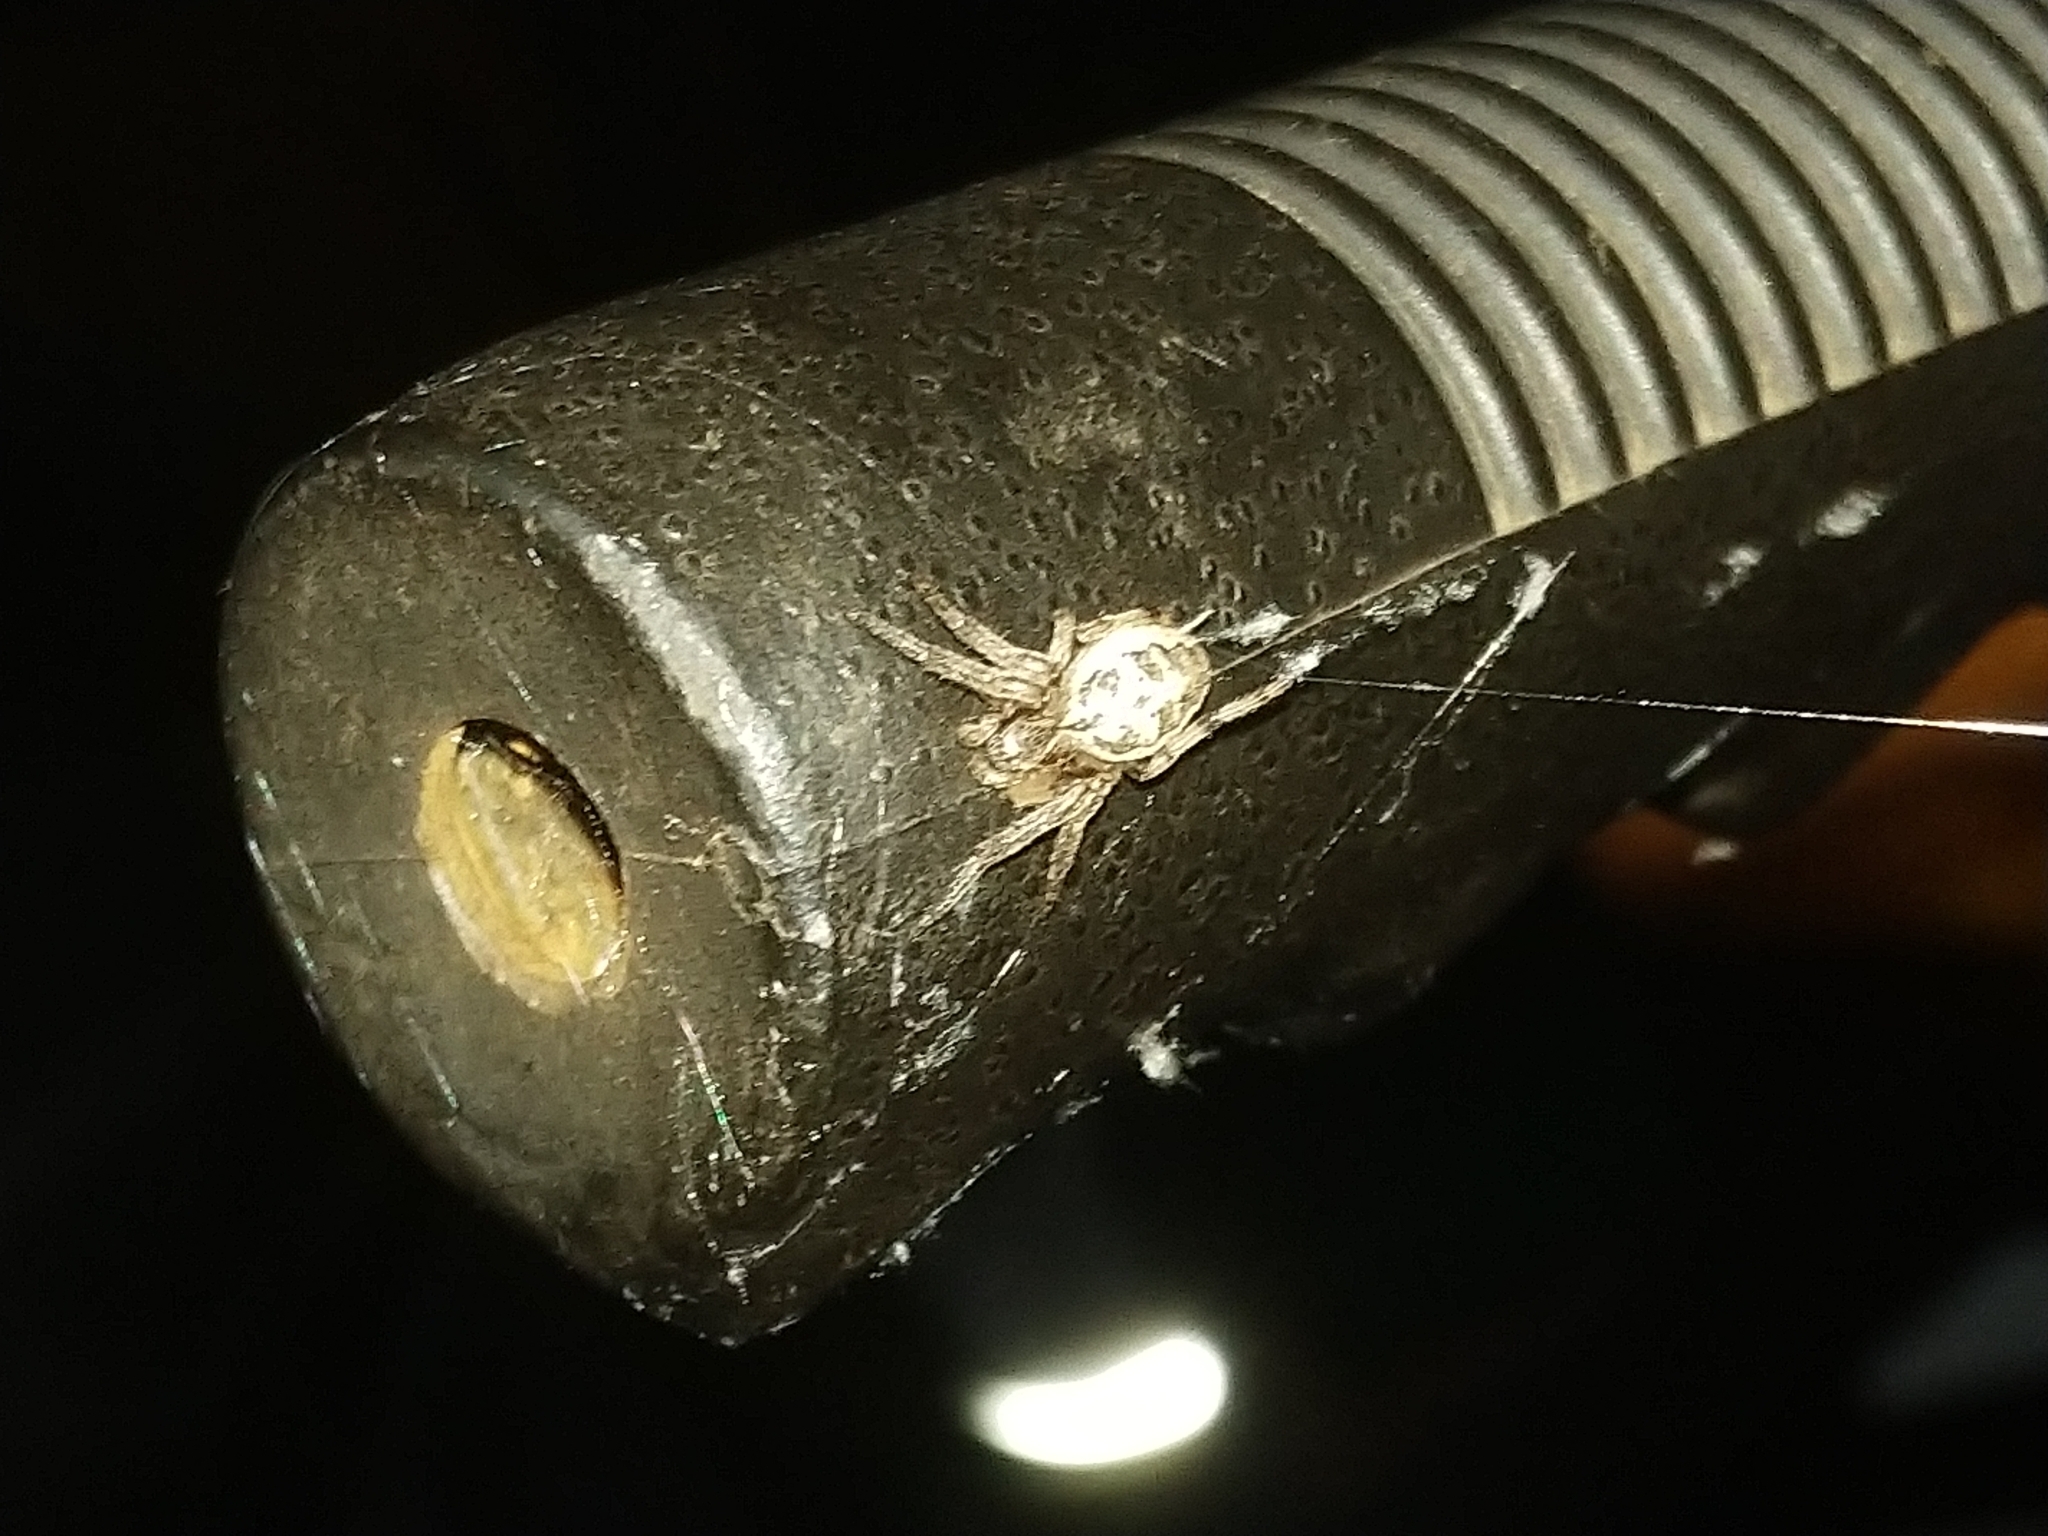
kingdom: Animalia
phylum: Arthropoda
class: Arachnida
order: Araneae
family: Araneidae
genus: Larinioides
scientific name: Larinioides cornutus
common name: Furrow orbweaver
